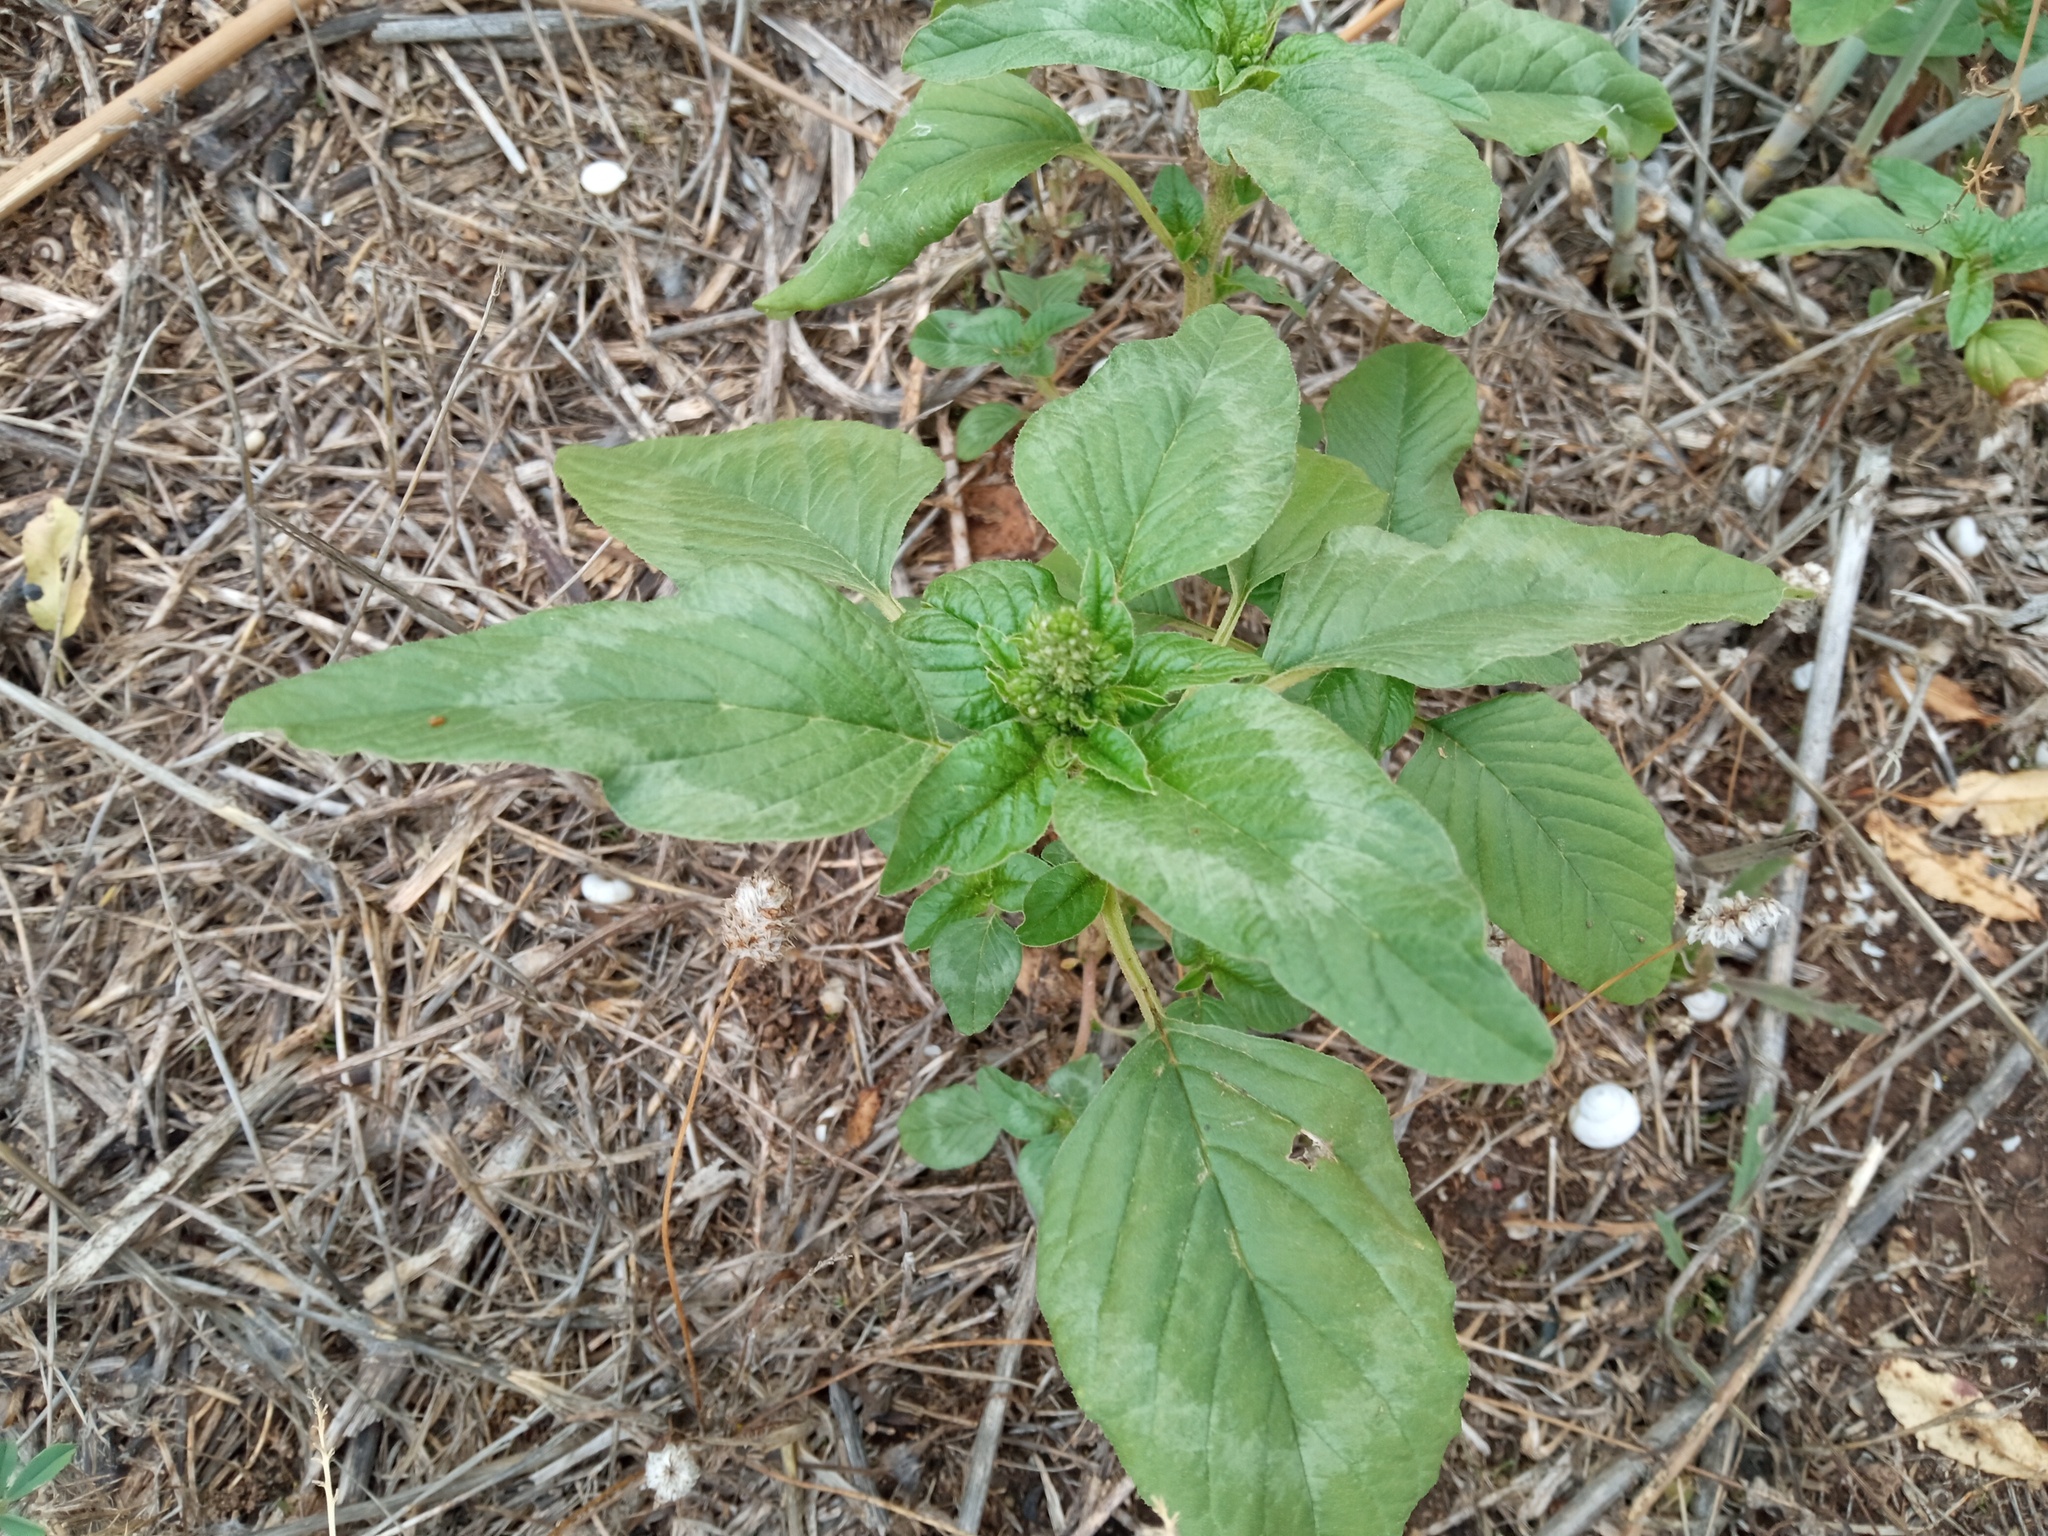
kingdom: Plantae
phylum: Tracheophyta
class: Magnoliopsida
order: Caryophyllales
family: Amaranthaceae
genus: Amaranthus
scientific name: Amaranthus retroflexus
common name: Redroot amaranth
